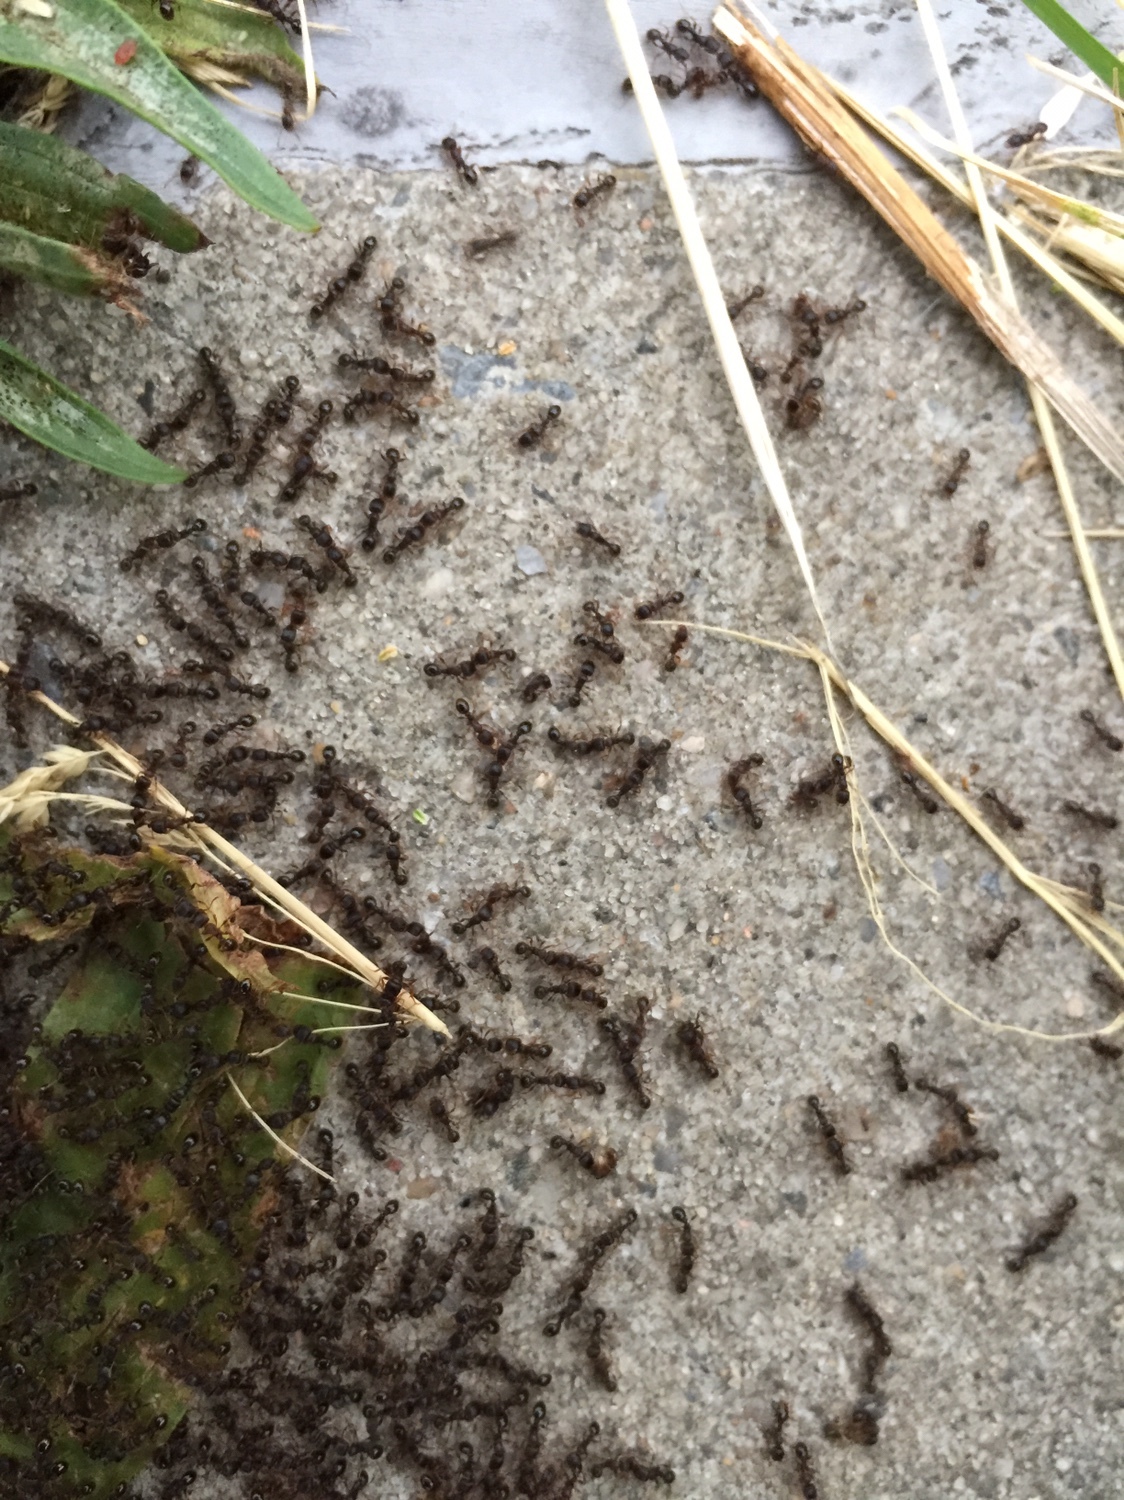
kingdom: Animalia
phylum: Arthropoda
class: Insecta
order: Hymenoptera
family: Formicidae
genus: Tetramorium
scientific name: Tetramorium immigrans
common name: Pavement ant
